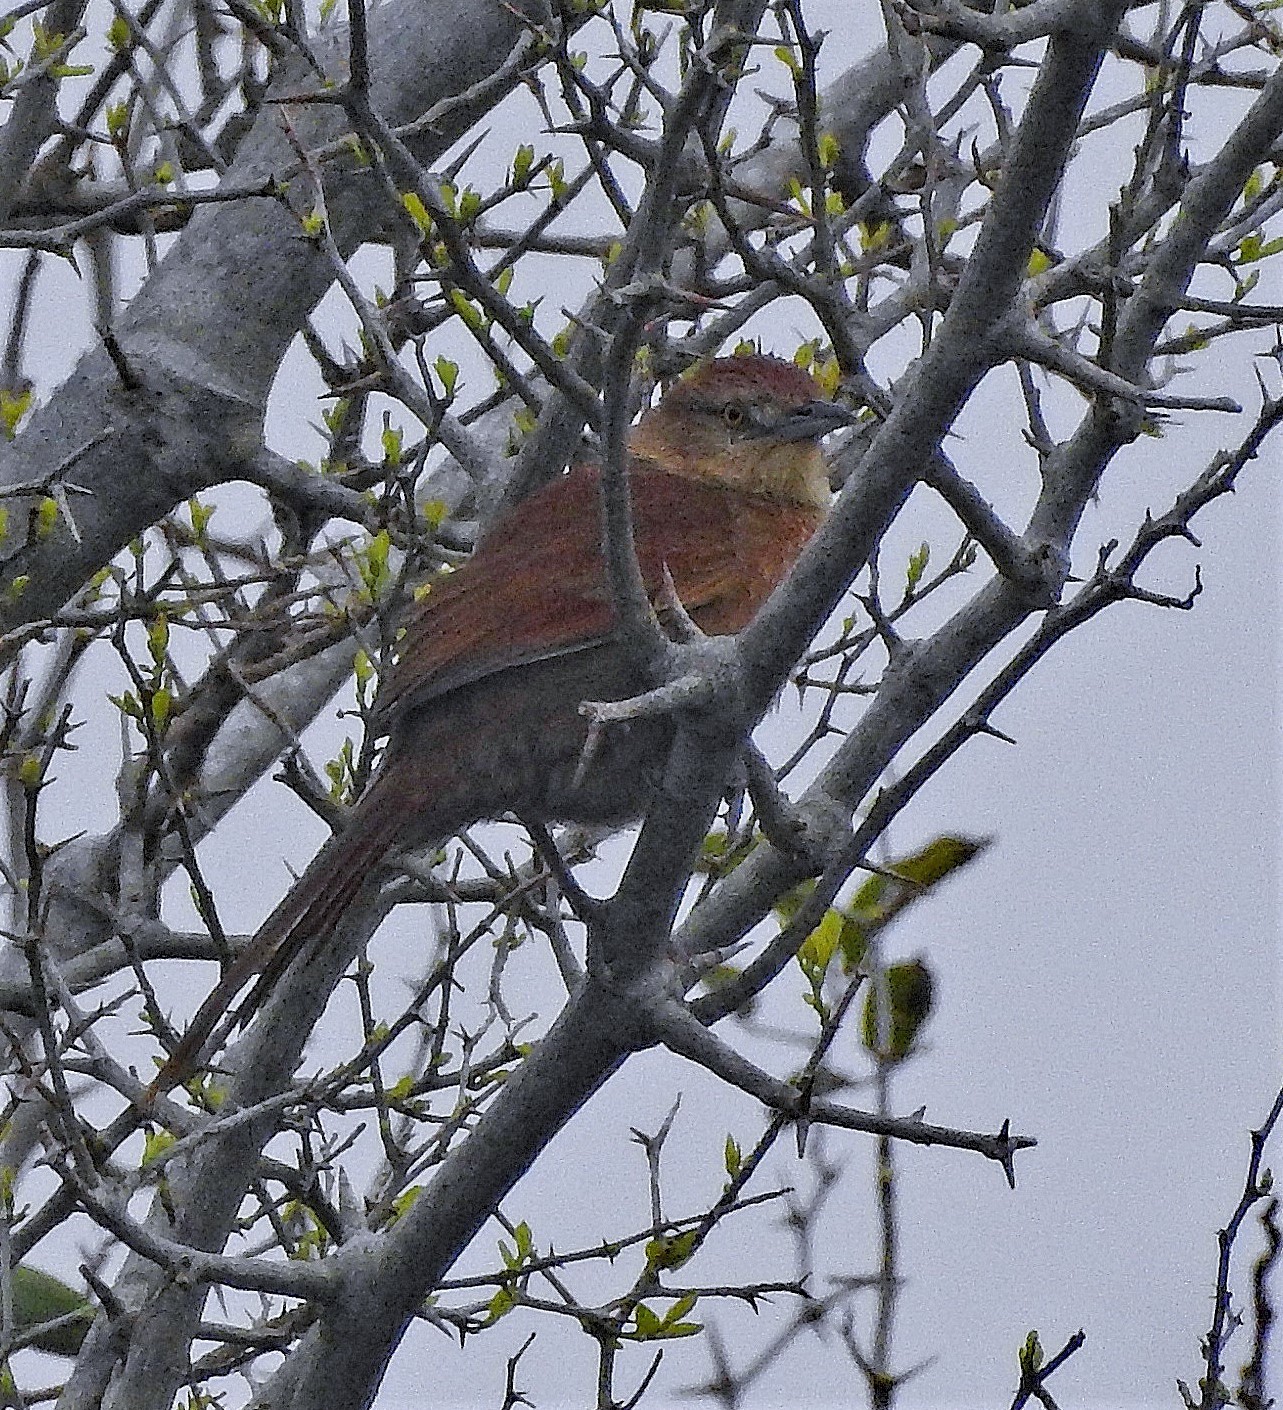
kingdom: Animalia
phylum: Chordata
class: Aves
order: Passeriformes
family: Furnariidae
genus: Phacellodomus
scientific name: Phacellodomus striaticollis
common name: Freckle-breasted thornbird
